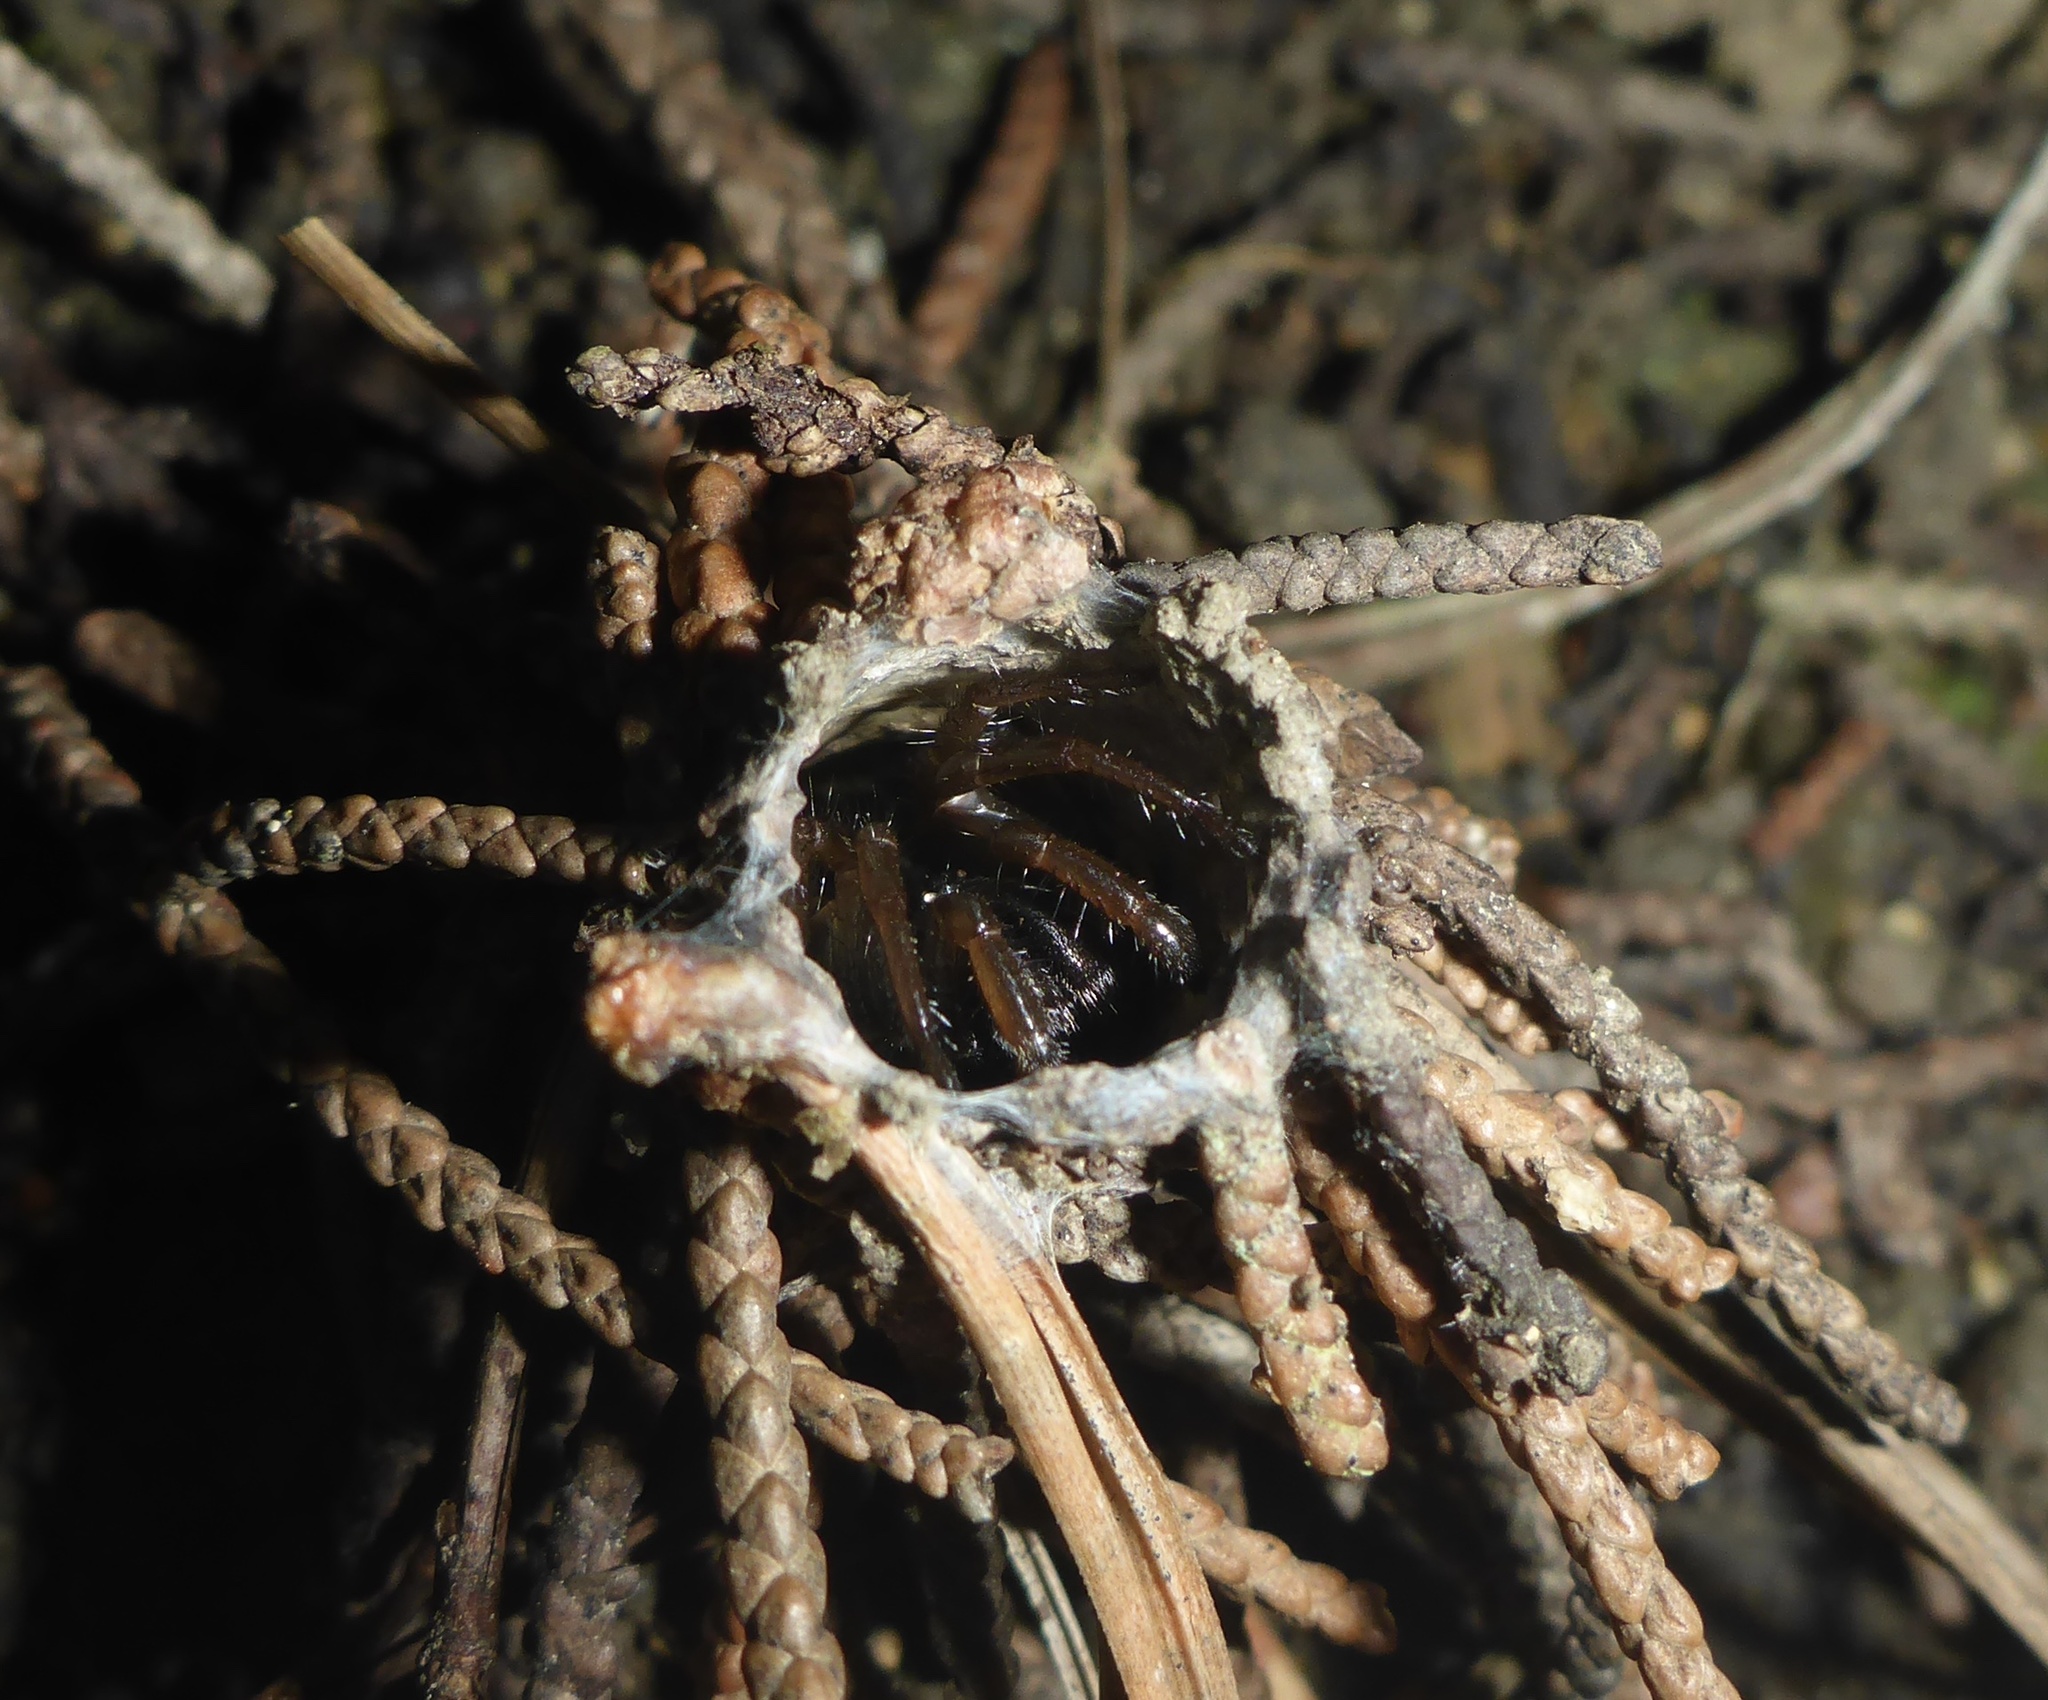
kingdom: Animalia
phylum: Arthropoda
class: Arachnida
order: Araneae
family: Antrodiaetidae
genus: Atypoides
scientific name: Atypoides riversi
